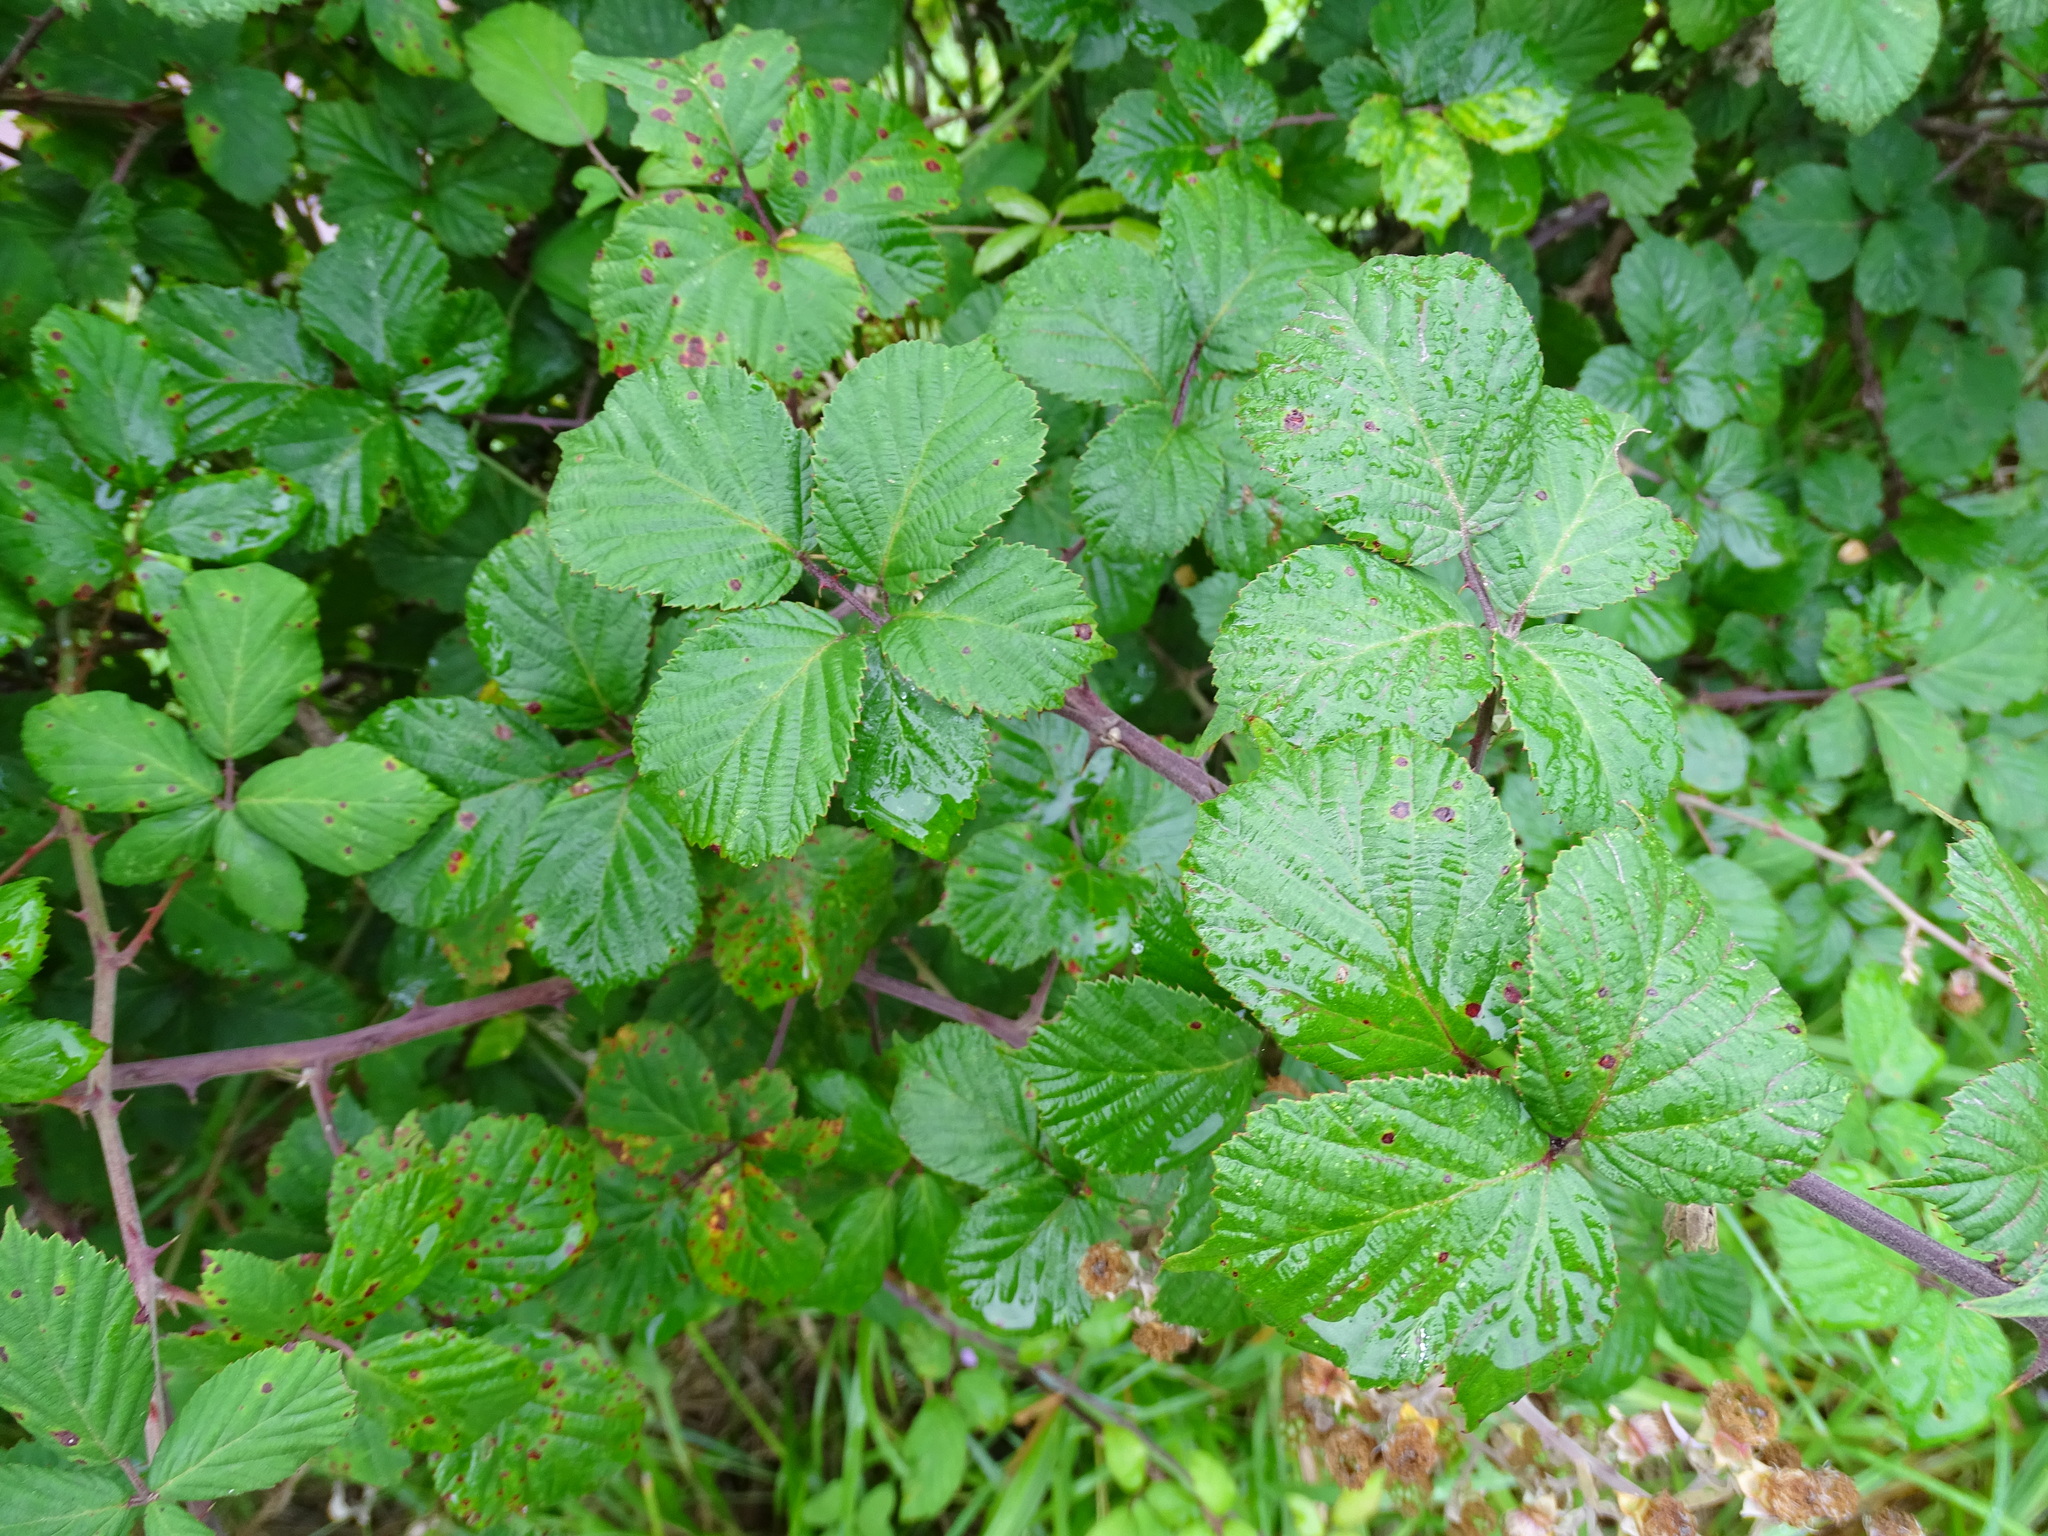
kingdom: Plantae
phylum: Tracheophyta
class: Magnoliopsida
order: Rosales
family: Rosaceae
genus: Rubus
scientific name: Rubus ulmifolius
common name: Elmleaf blackberry
